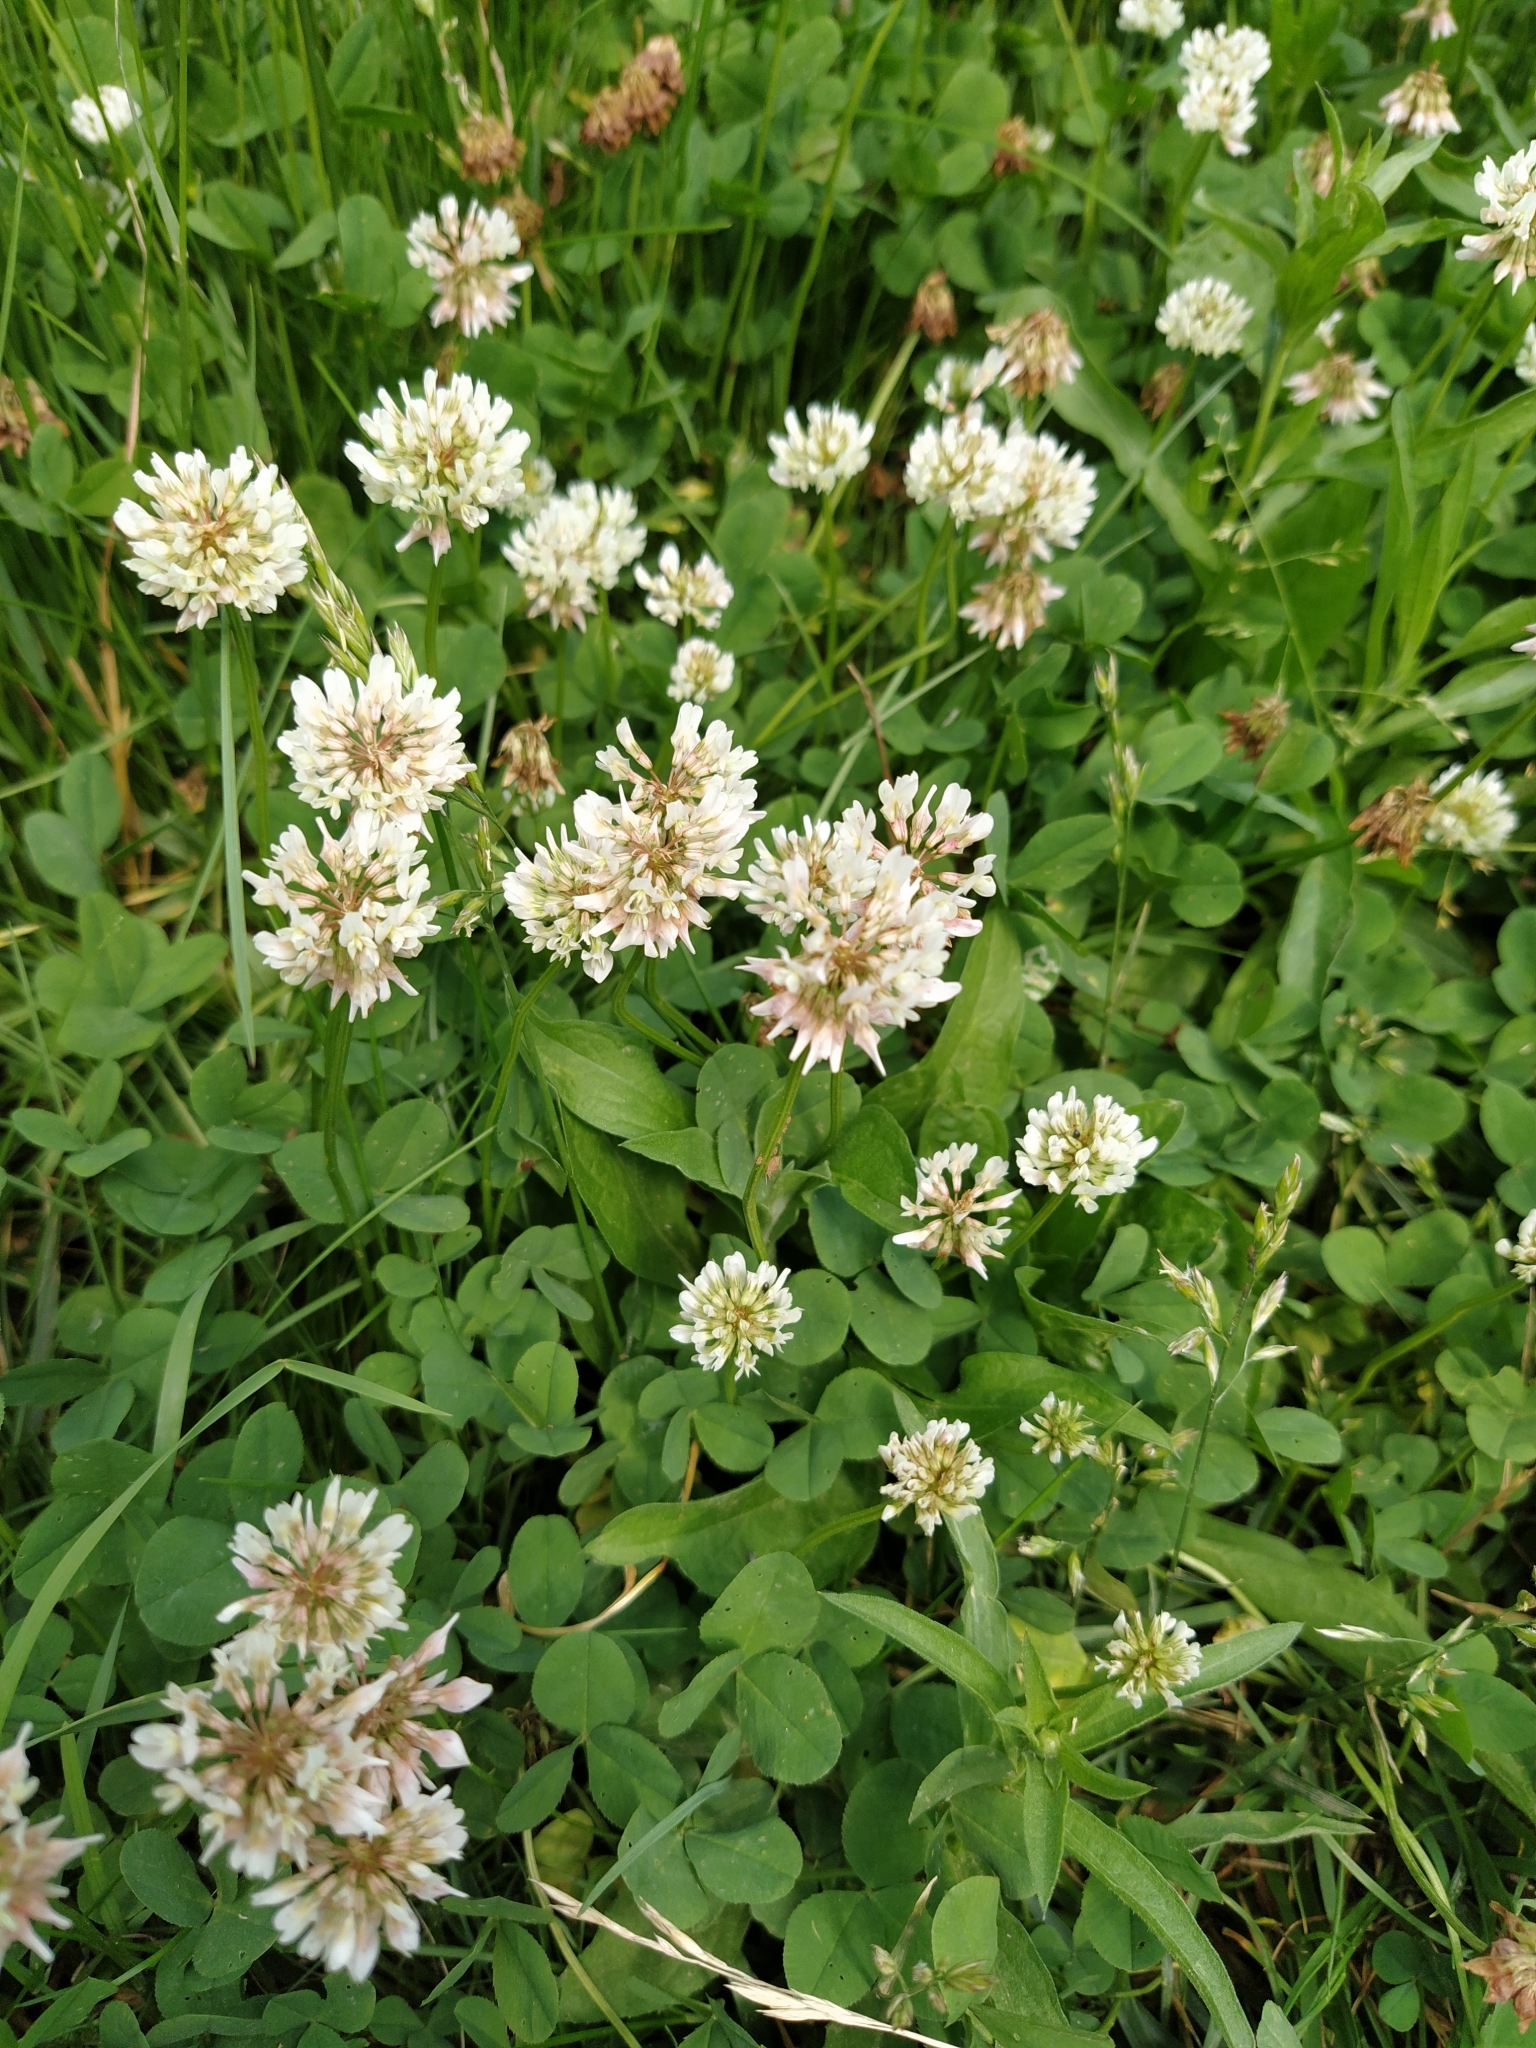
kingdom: Plantae
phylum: Tracheophyta
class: Magnoliopsida
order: Fabales
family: Fabaceae
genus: Trifolium
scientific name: Trifolium repens
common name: White clover
